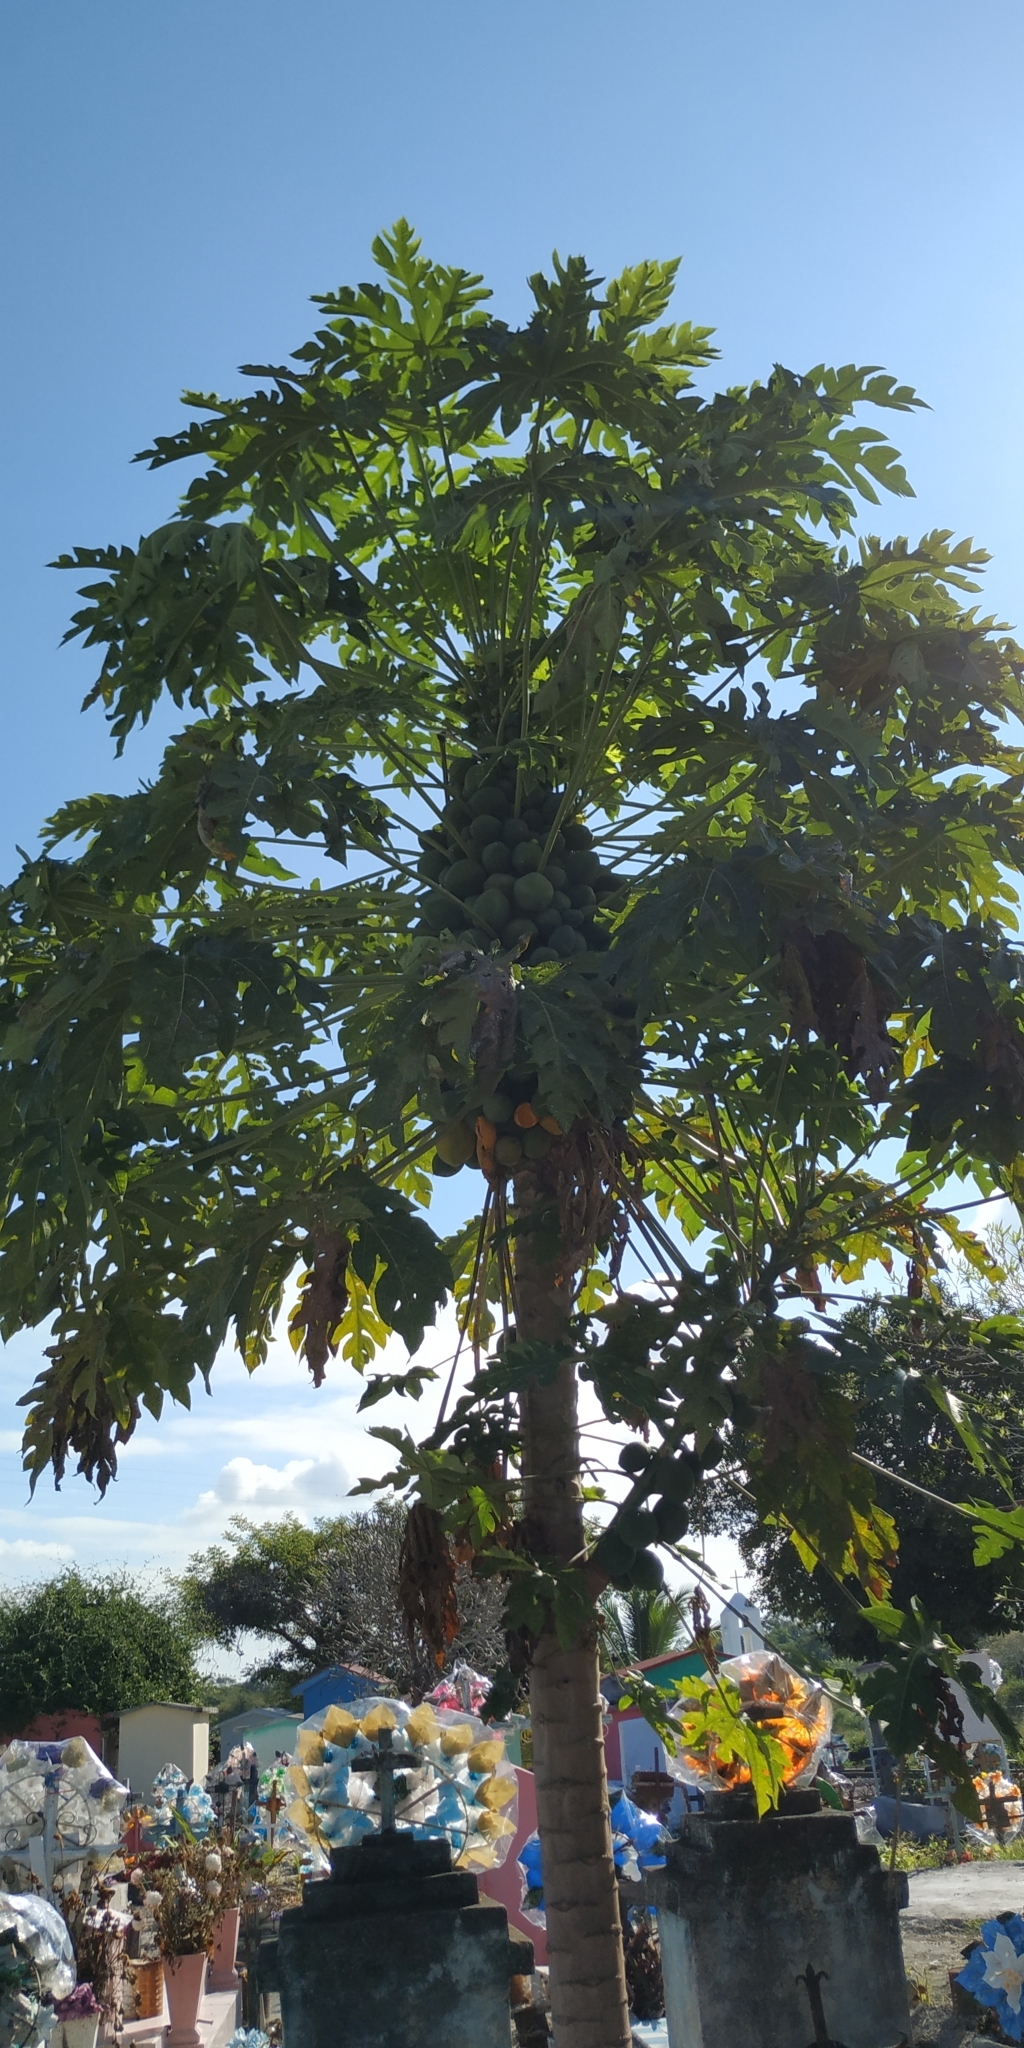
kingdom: Plantae
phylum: Tracheophyta
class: Magnoliopsida
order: Brassicales
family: Caricaceae
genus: Carica
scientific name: Carica papaya
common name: Papaya
